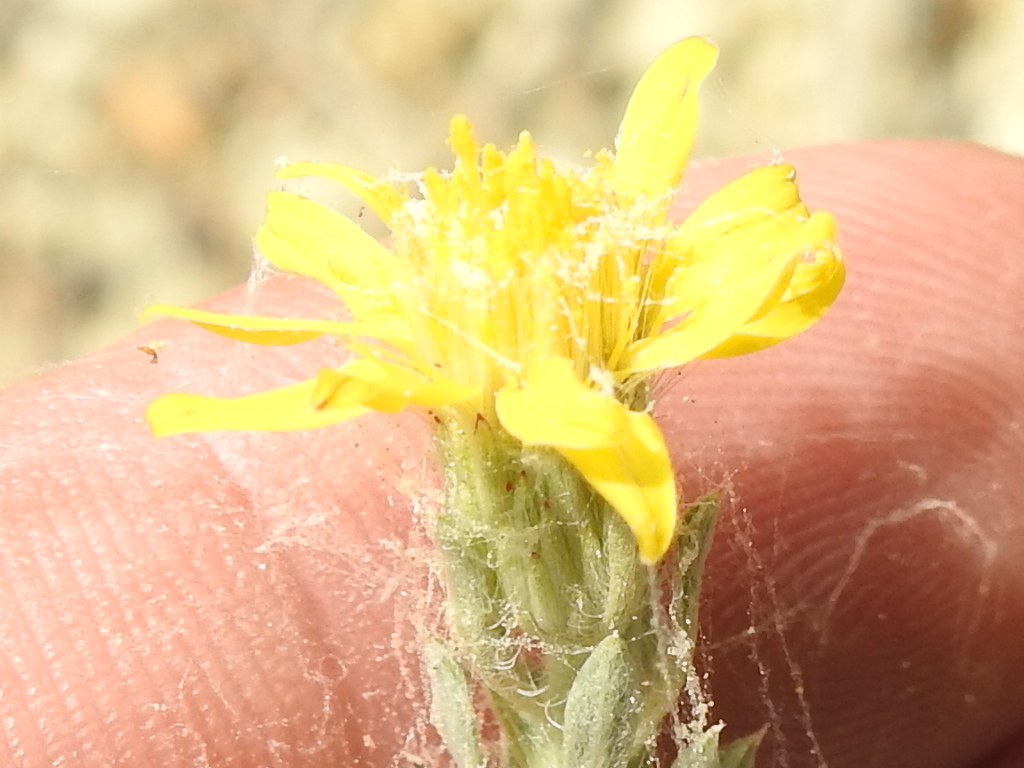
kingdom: Plantae
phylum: Tracheophyta
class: Magnoliopsida
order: Asterales
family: Asteraceae
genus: Heterotheca
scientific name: Heterotheca canescens
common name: Hoary golden-aster
